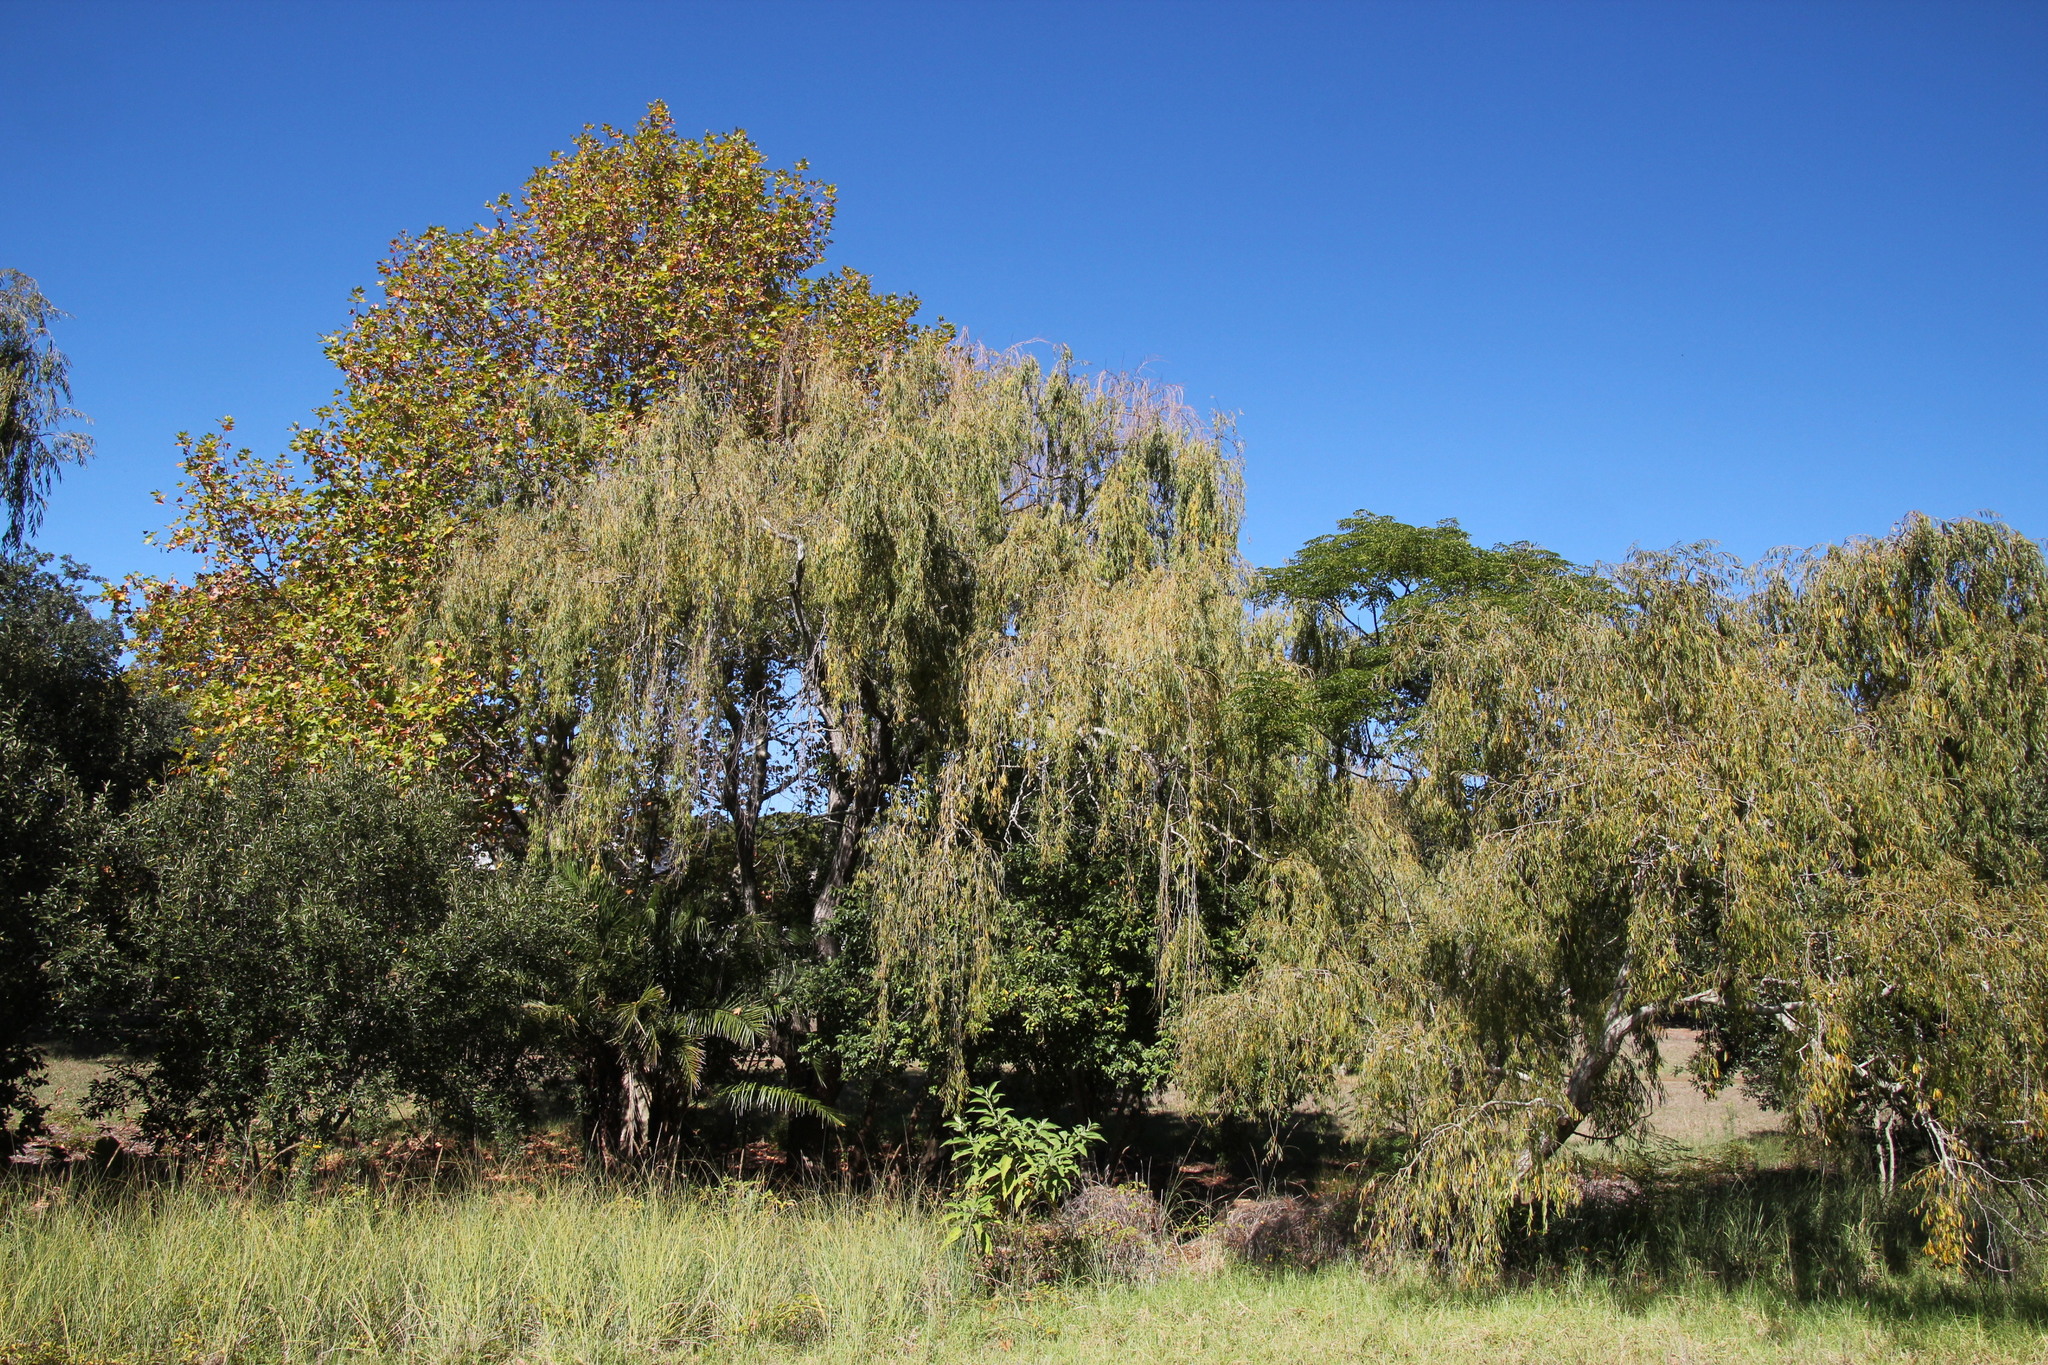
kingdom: Plantae
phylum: Tracheophyta
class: Magnoliopsida
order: Malpighiales
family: Salicaceae
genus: Salix
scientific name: Salix babylonica
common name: Weeping willow
